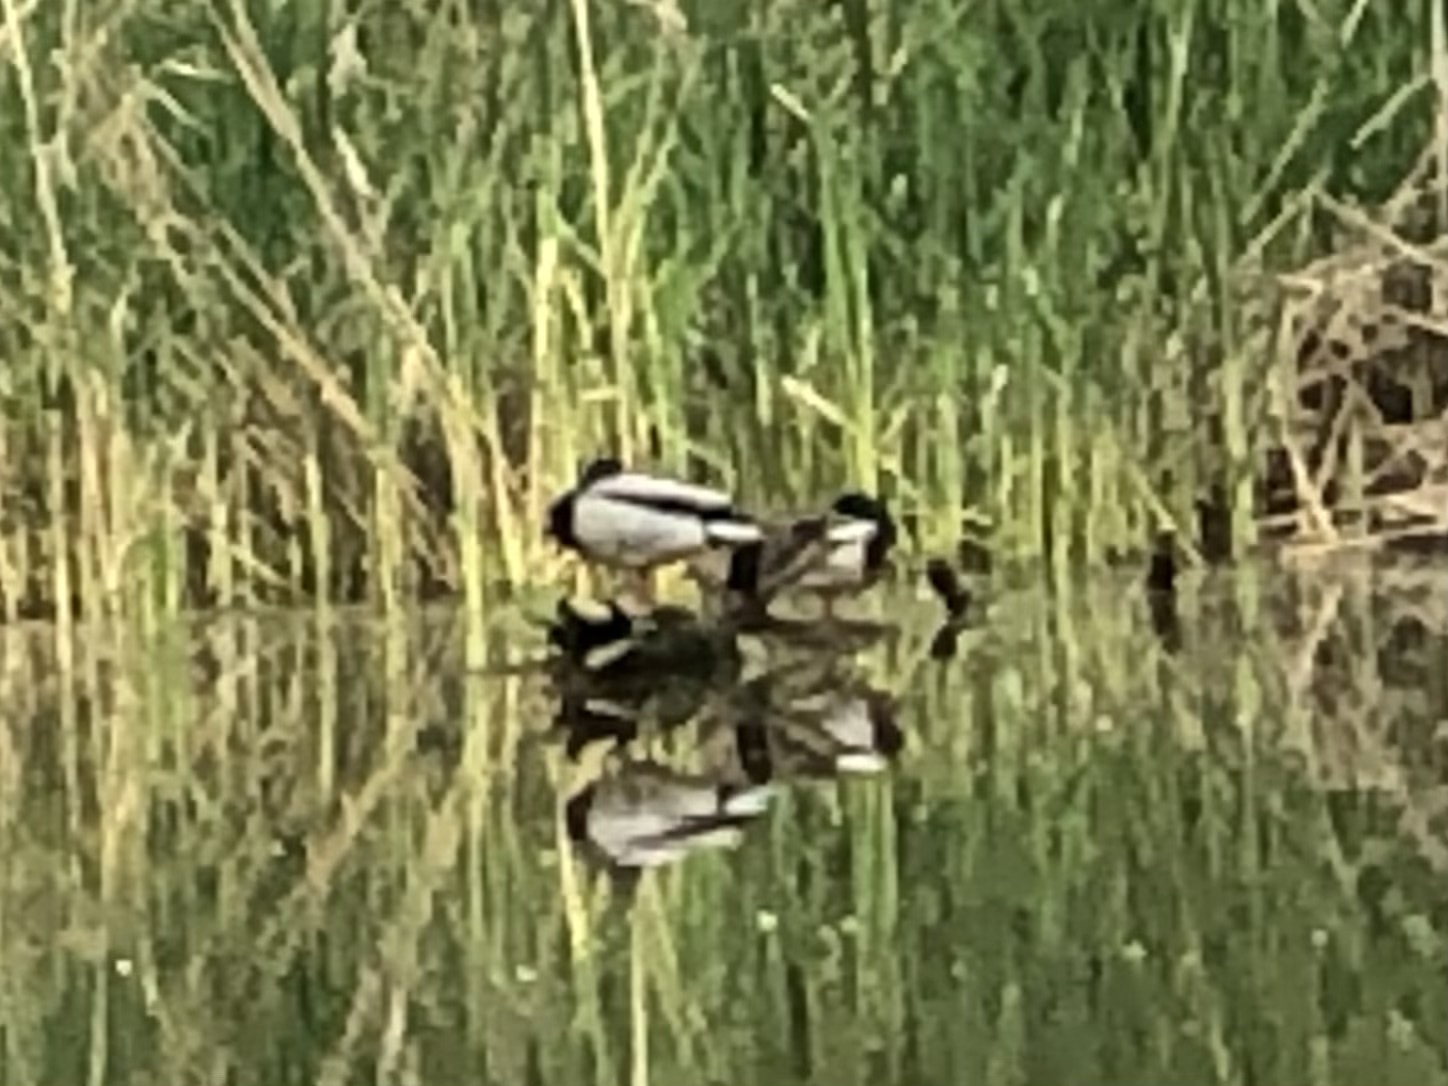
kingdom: Animalia
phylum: Chordata
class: Aves
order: Anseriformes
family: Anatidae
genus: Anas
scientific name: Anas platyrhynchos
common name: Mallard
